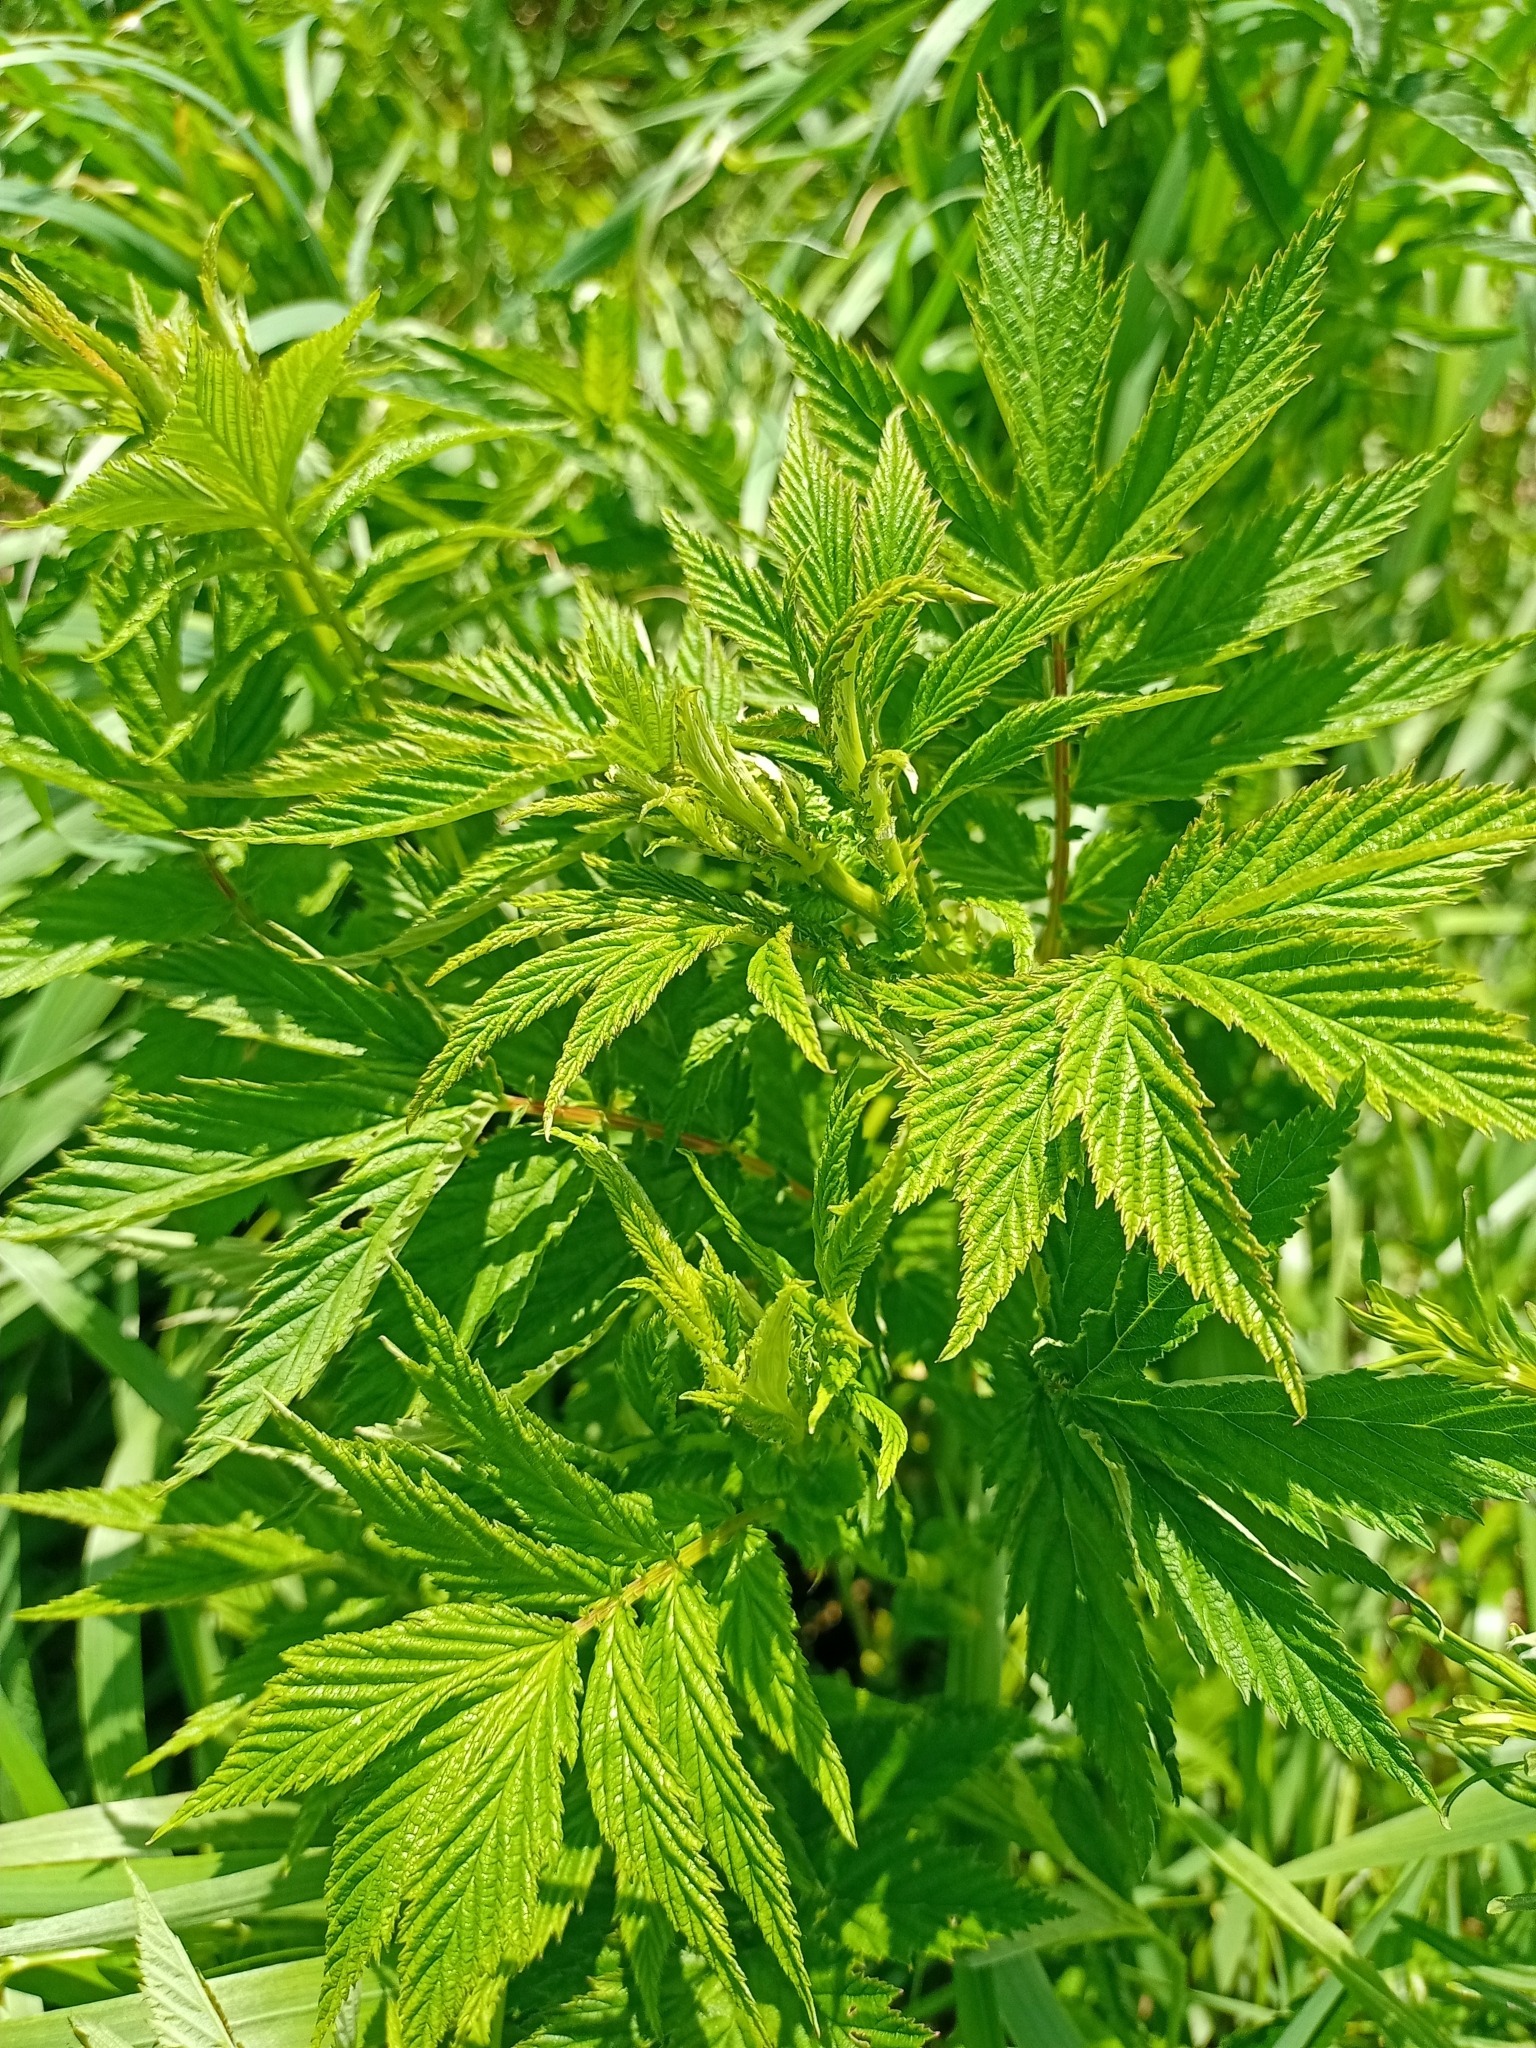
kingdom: Plantae
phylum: Tracheophyta
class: Magnoliopsida
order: Rosales
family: Rosaceae
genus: Filipendula
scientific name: Filipendula digitata
